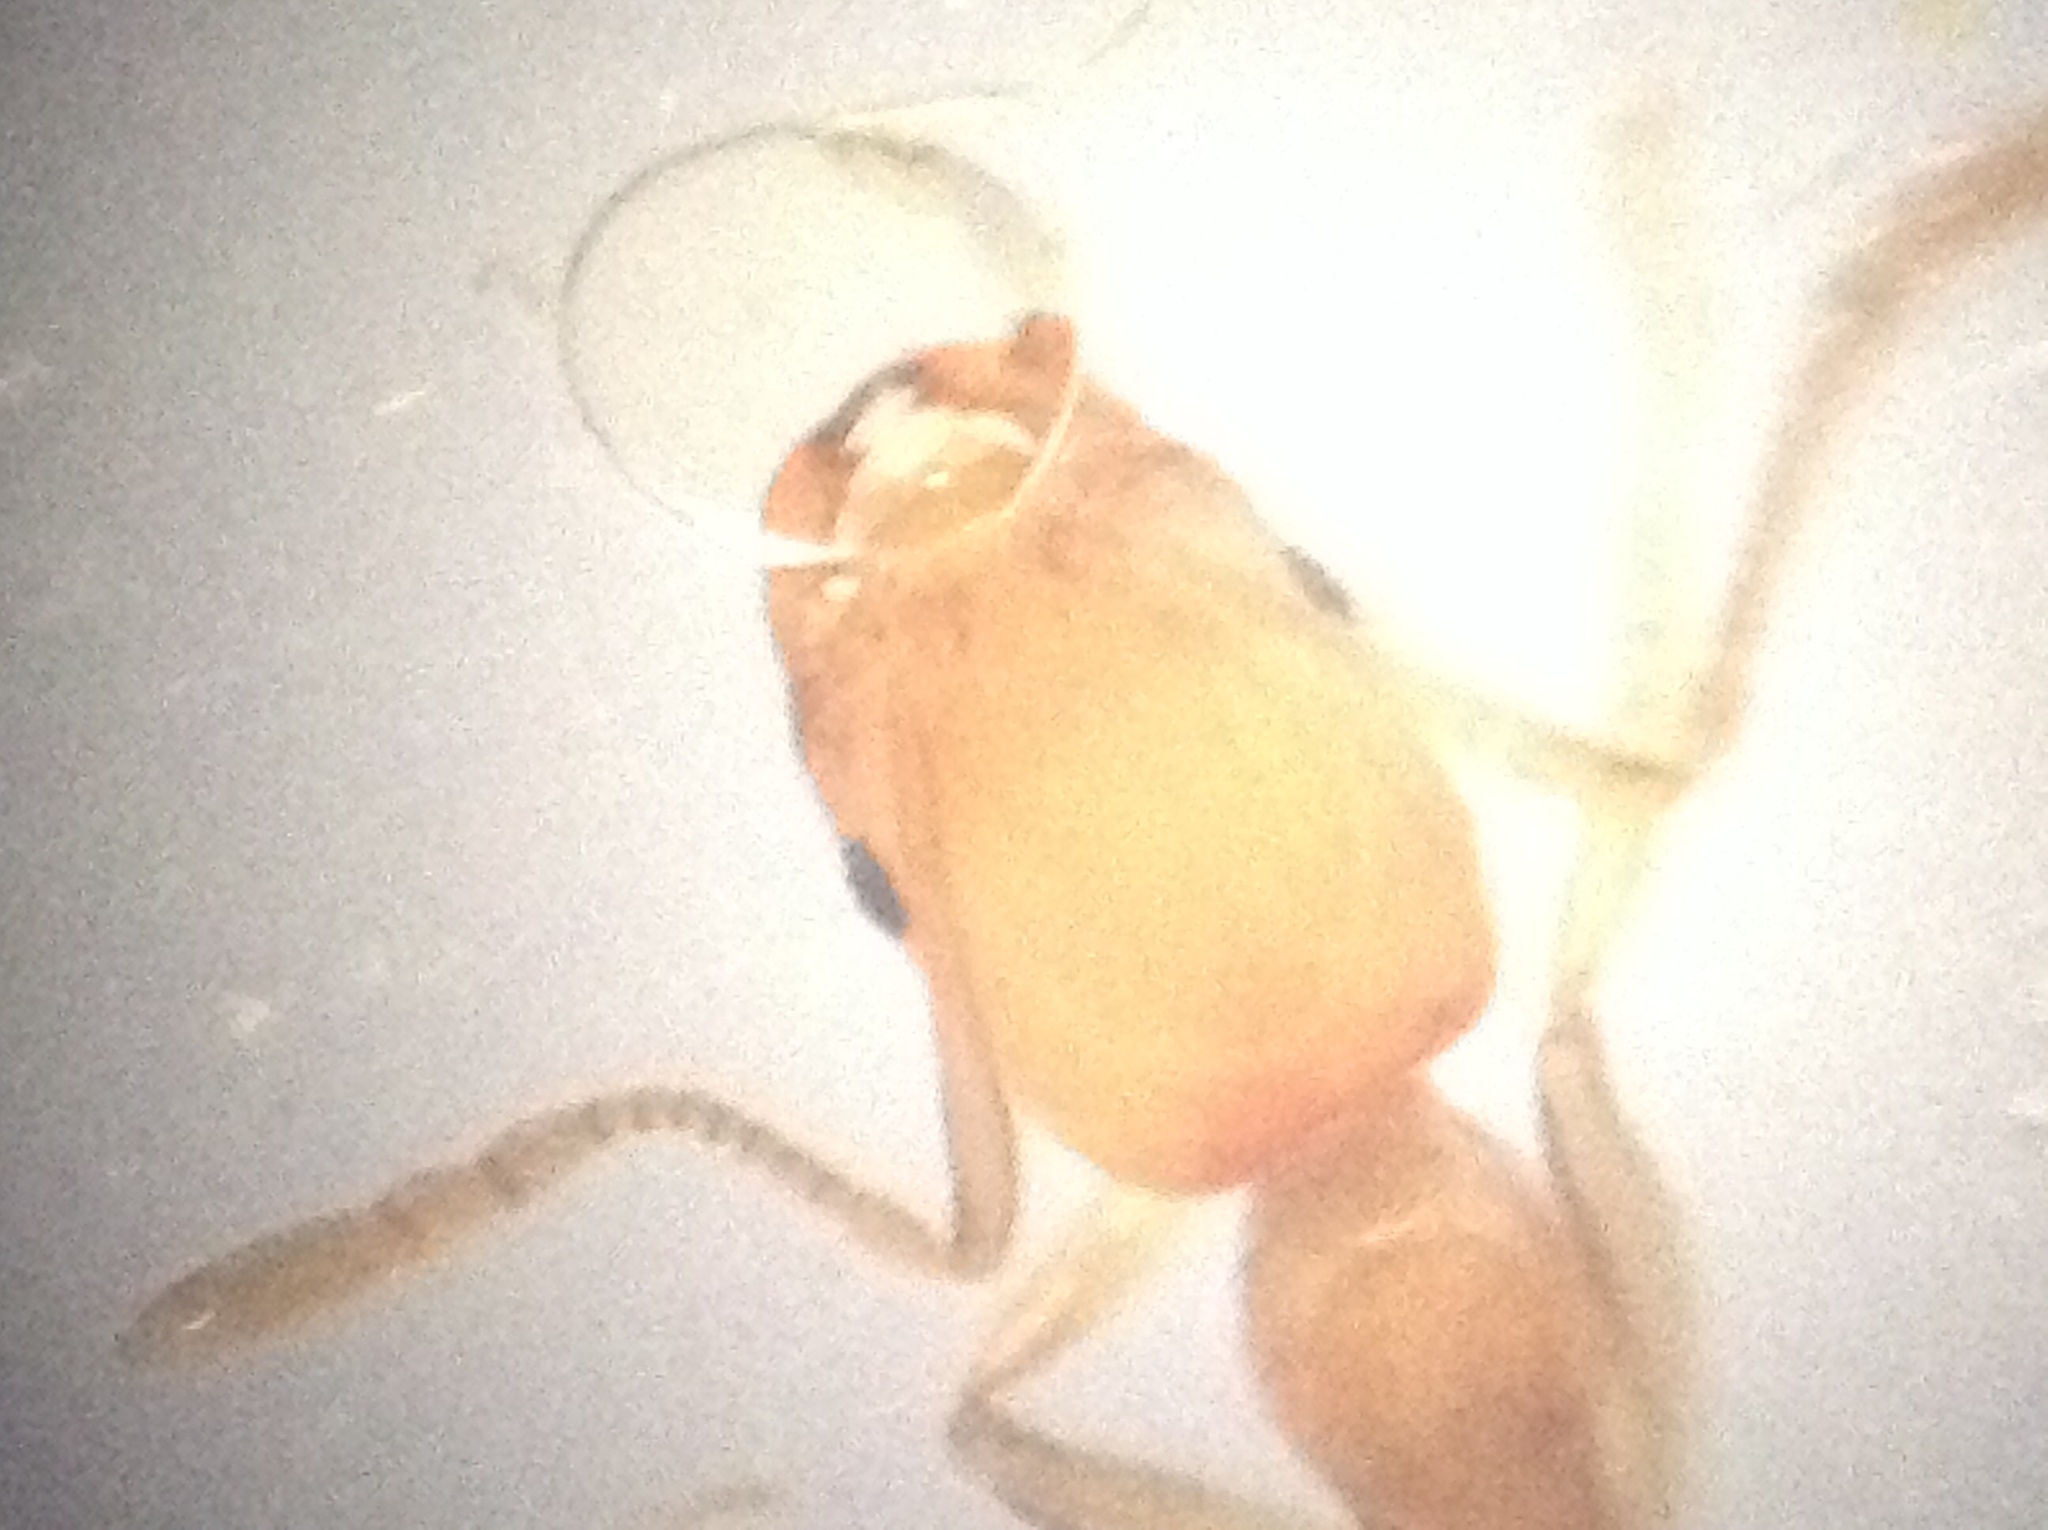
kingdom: Animalia
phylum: Arthropoda
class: Insecta
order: Hymenoptera
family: Formicidae
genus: Monomorium
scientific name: Monomorium destructor
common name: Destructive trailing ant
